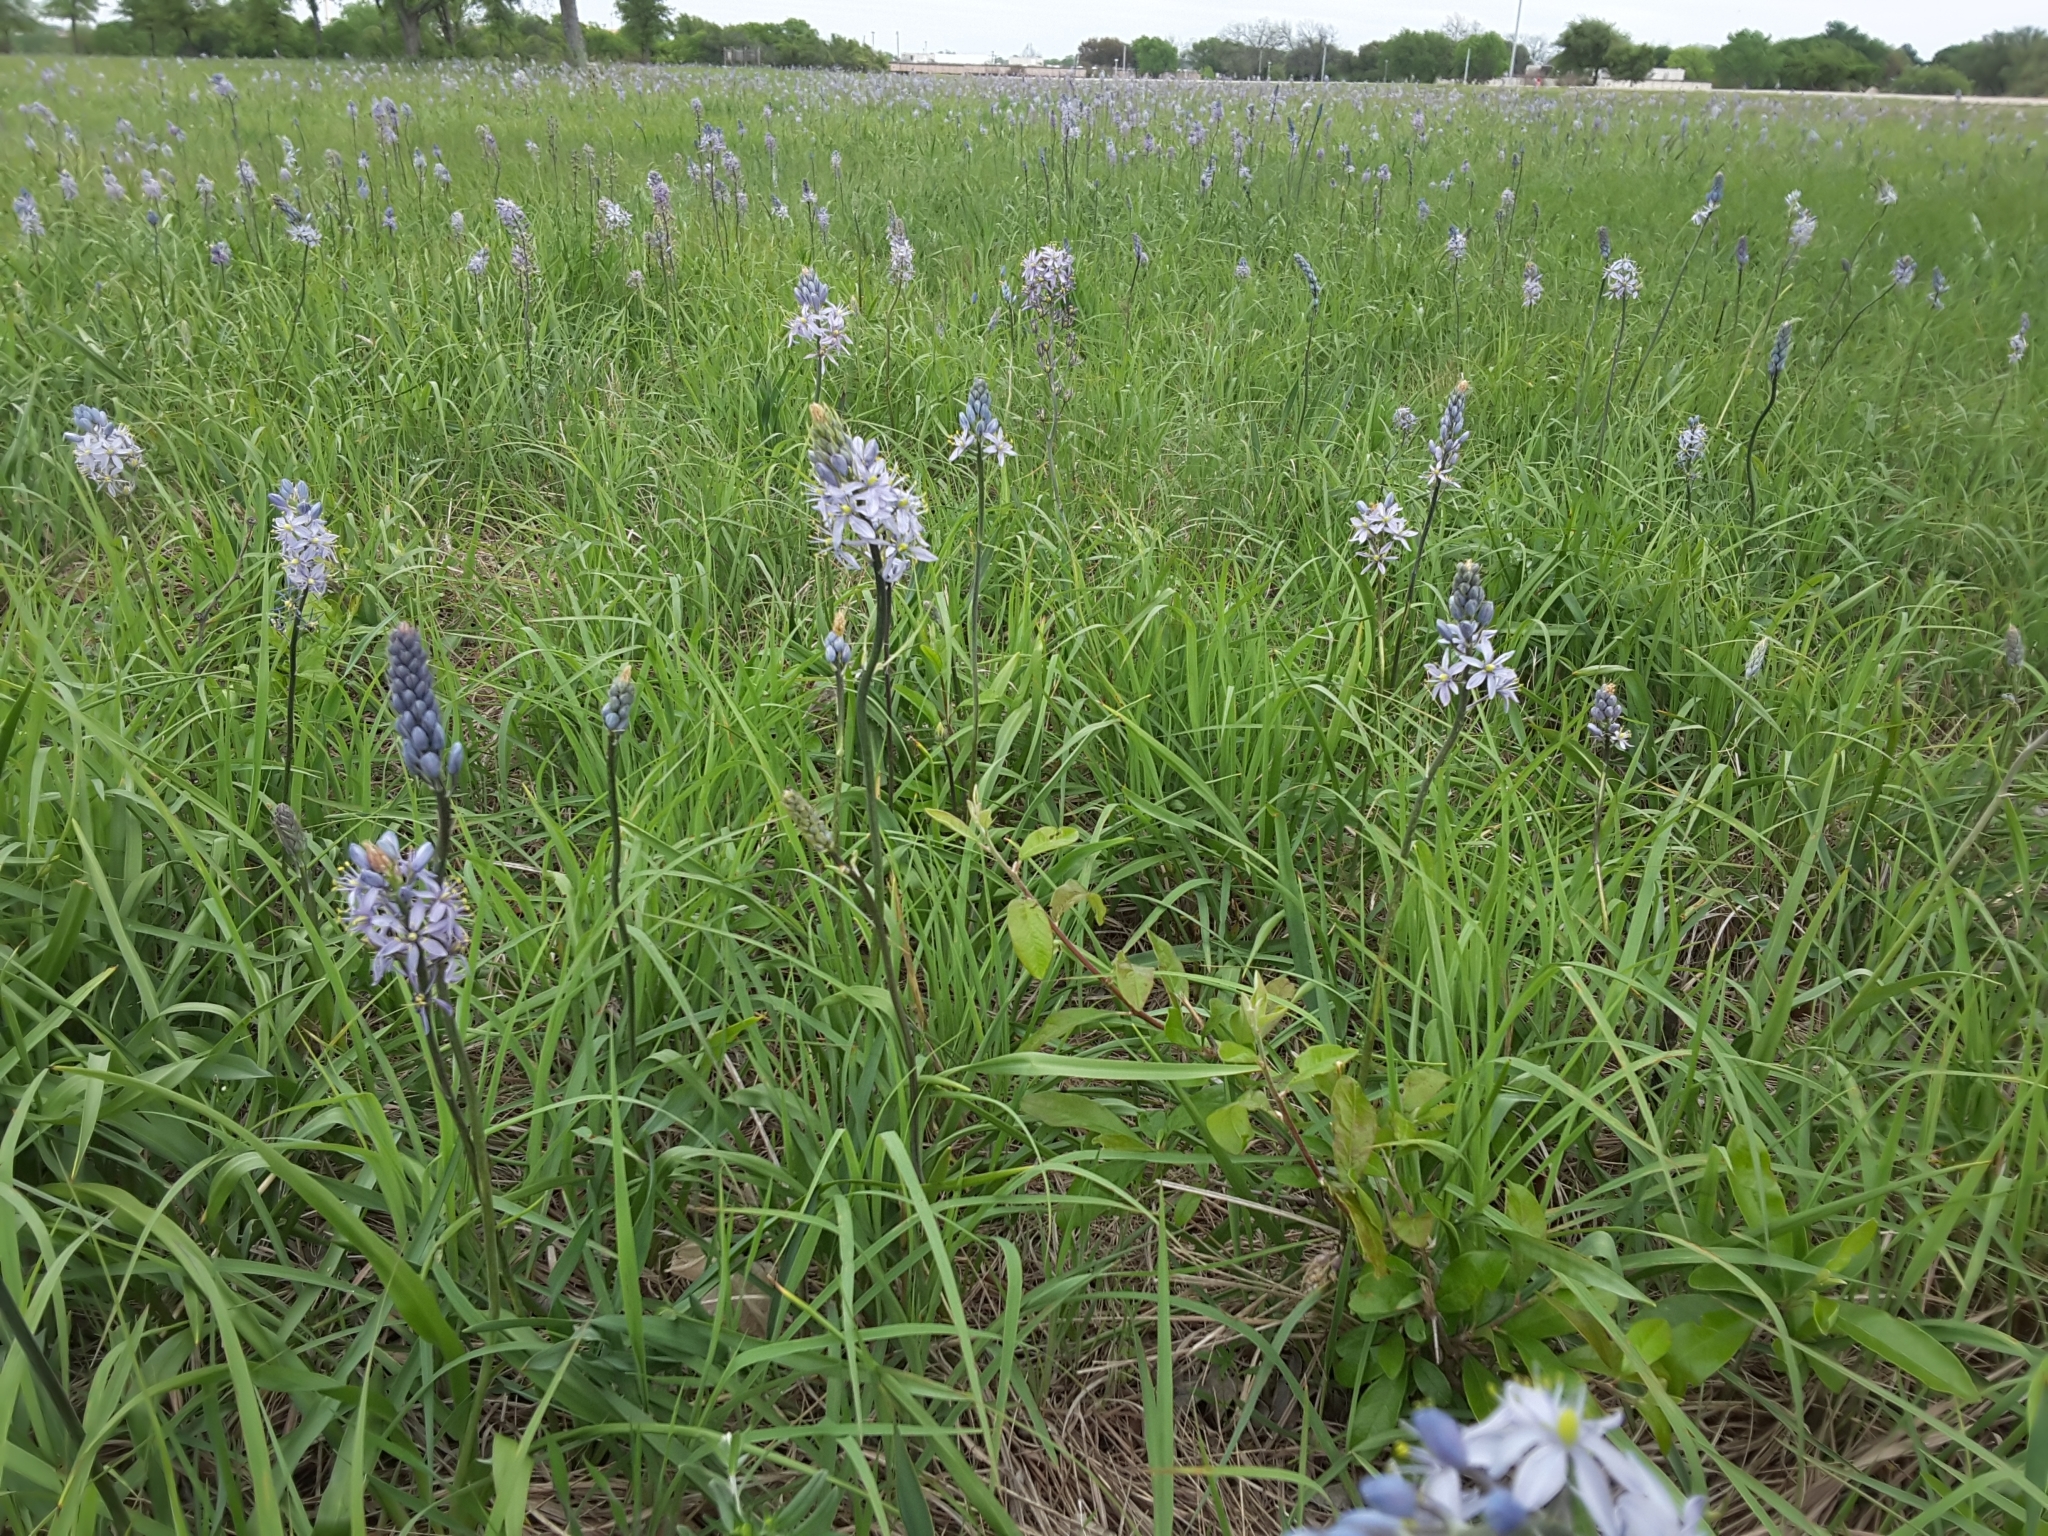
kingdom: Plantae
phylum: Tracheophyta
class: Liliopsida
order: Asparagales
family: Asparagaceae
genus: Camassia
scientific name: Camassia scilloides
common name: Wild hyacinth
